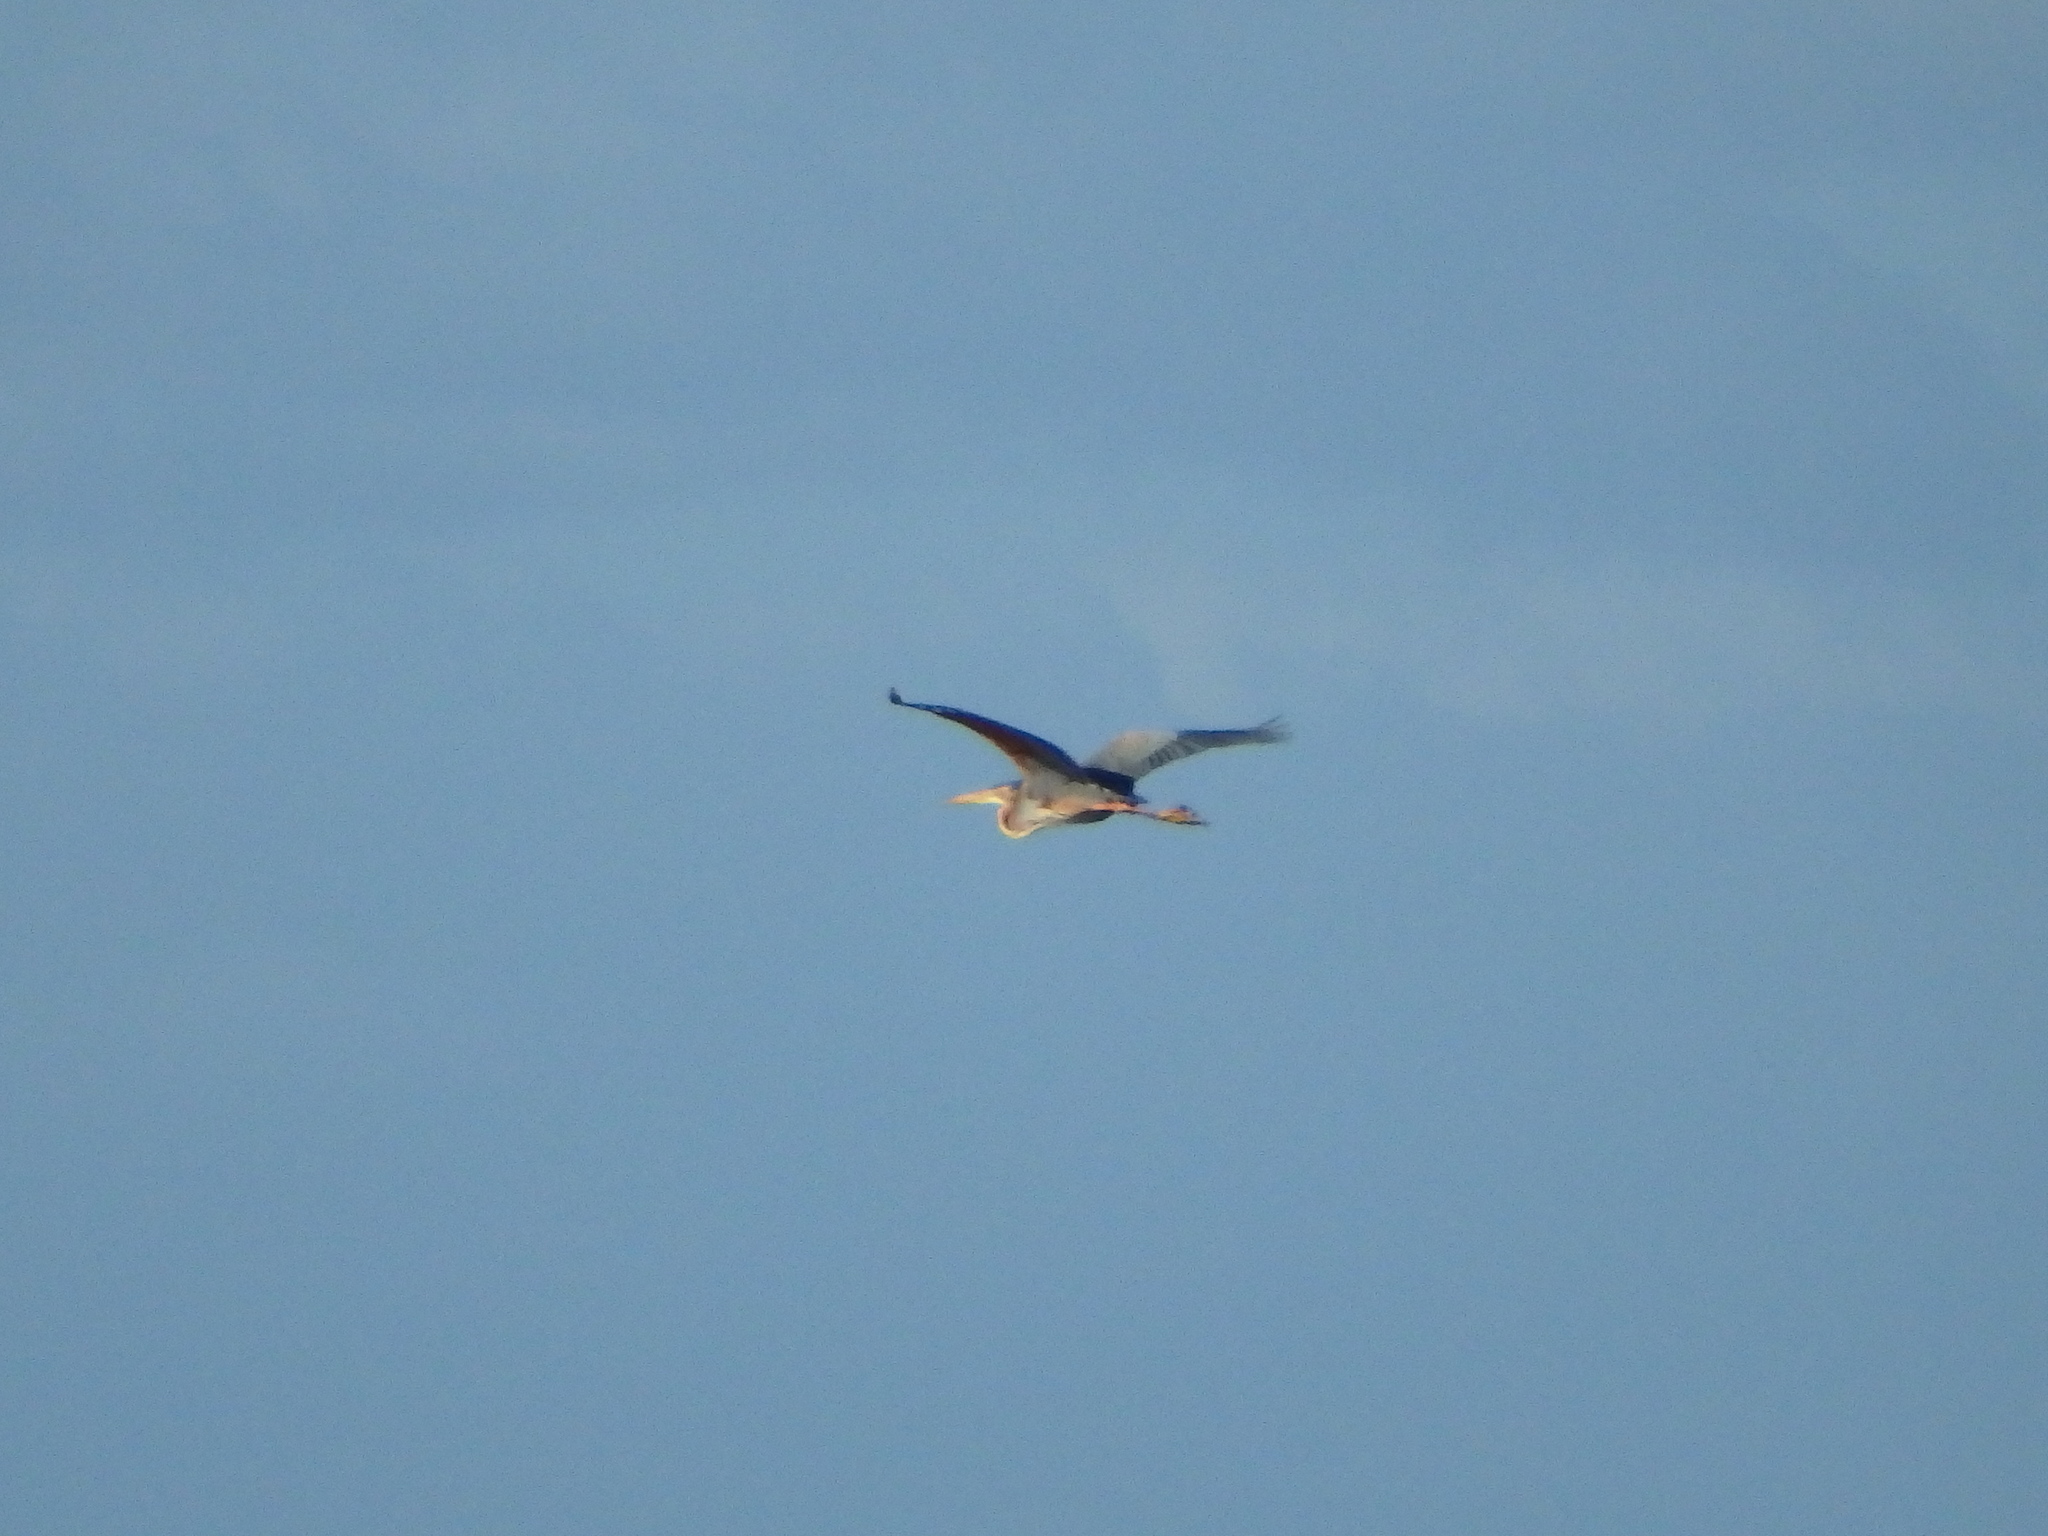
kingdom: Animalia
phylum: Chordata
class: Aves
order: Pelecaniformes
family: Ardeidae
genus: Ardea
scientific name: Ardea purpurea
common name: Purple heron
